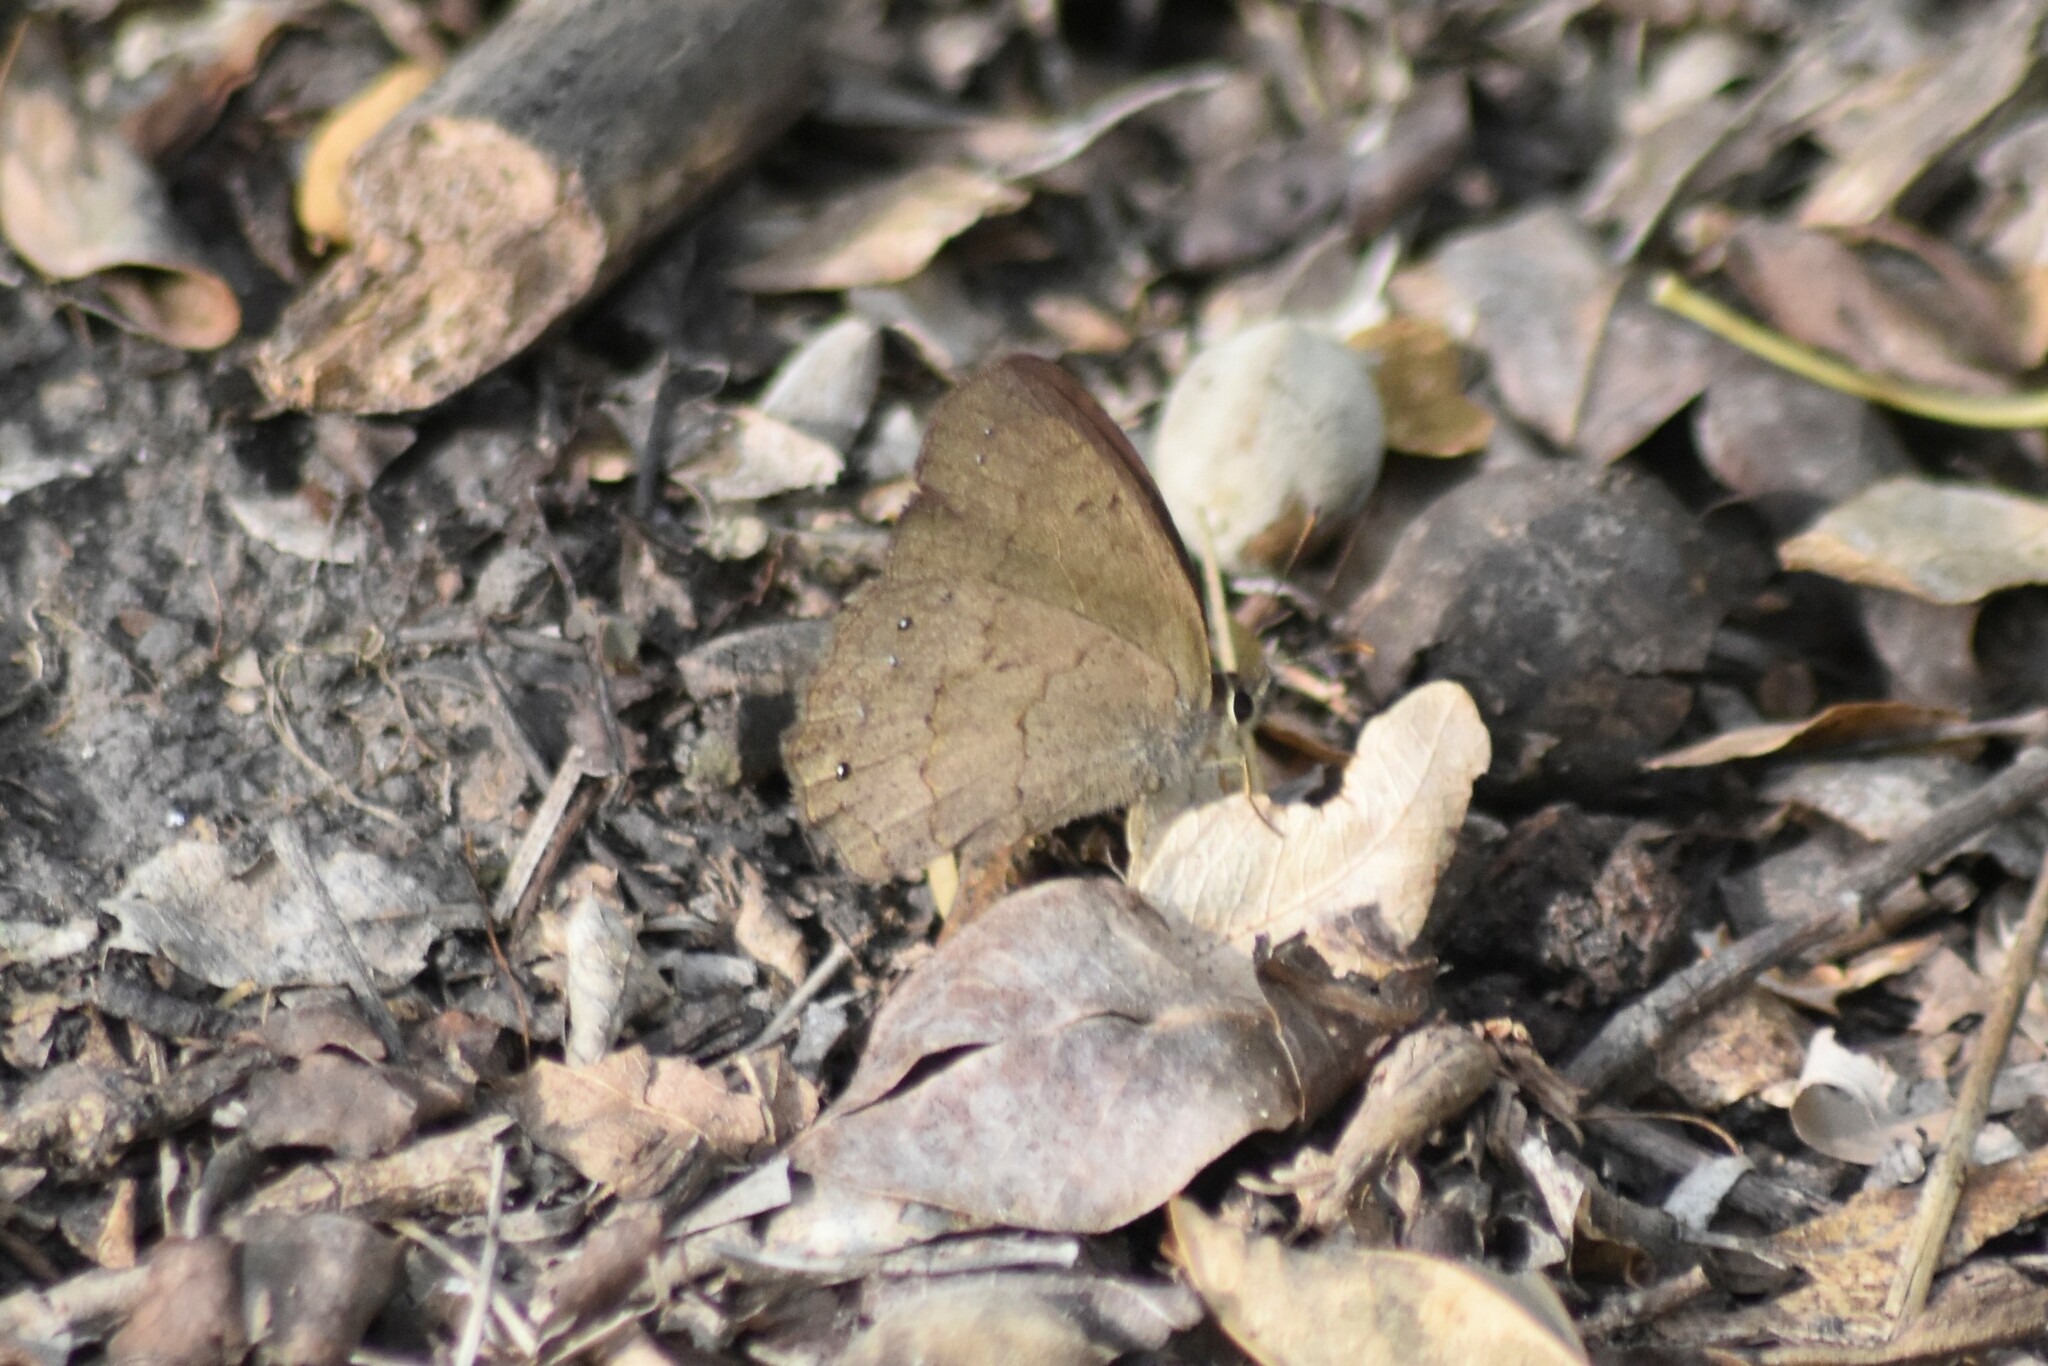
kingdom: Animalia
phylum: Arthropoda
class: Insecta
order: Lepidoptera
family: Nymphalidae
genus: Yphthimoides
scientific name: Yphthimoides celmis
